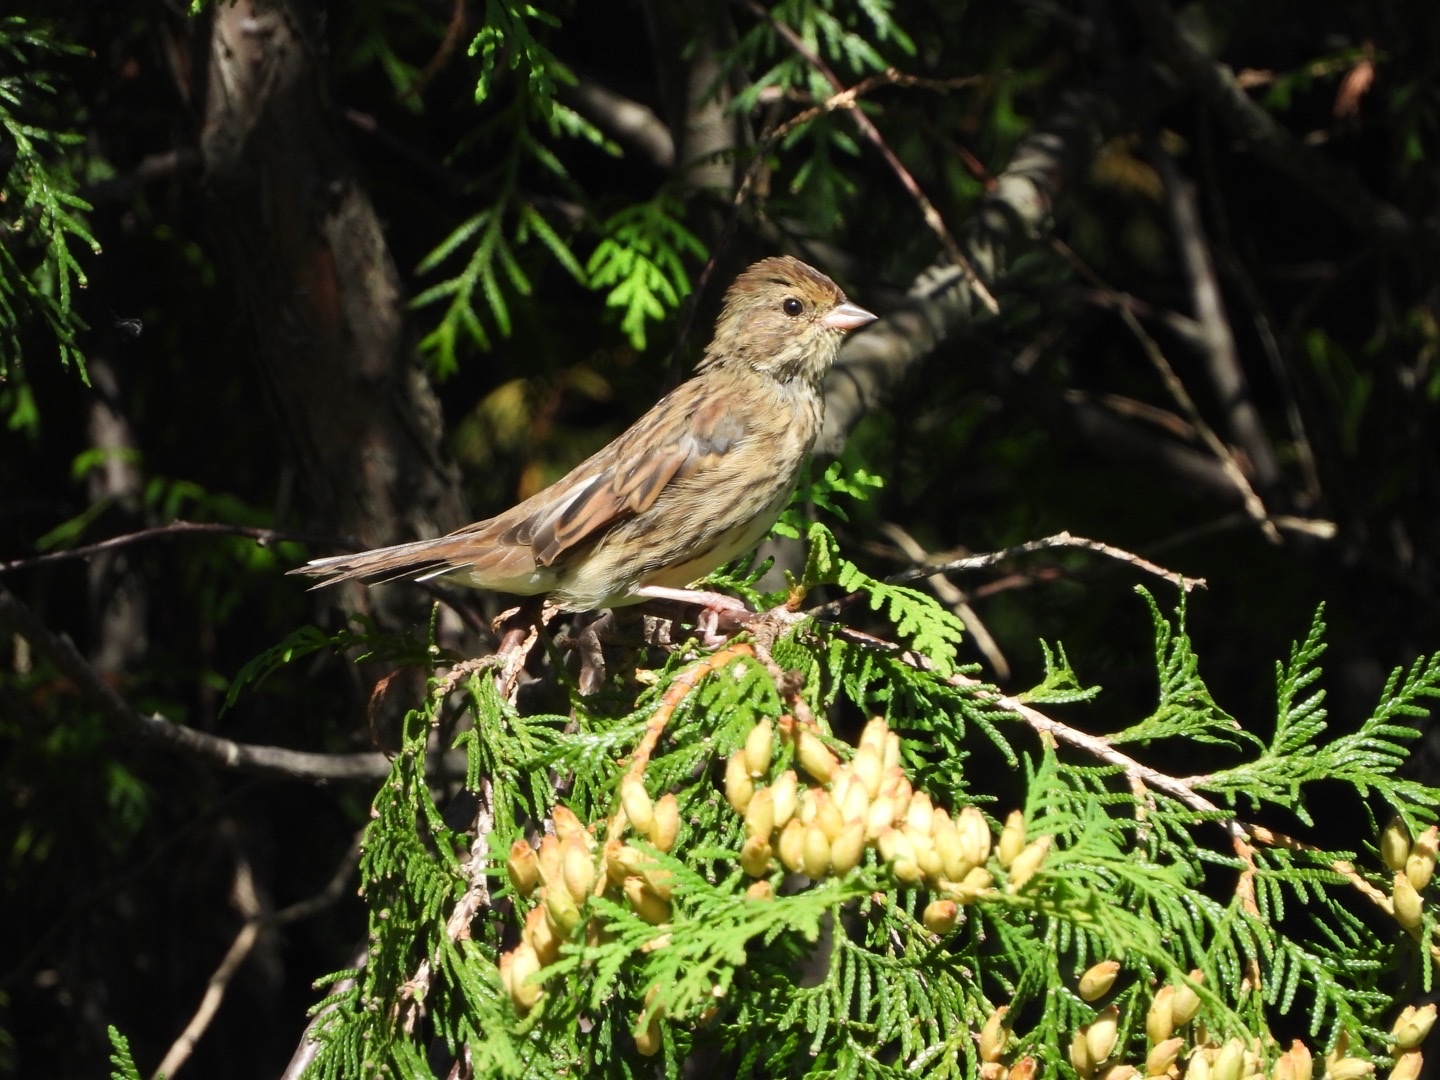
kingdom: Animalia
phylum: Chordata
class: Aves
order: Passeriformes
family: Emberizidae
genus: Emberiza
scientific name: Emberiza spodocephala
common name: Black-faced bunting
